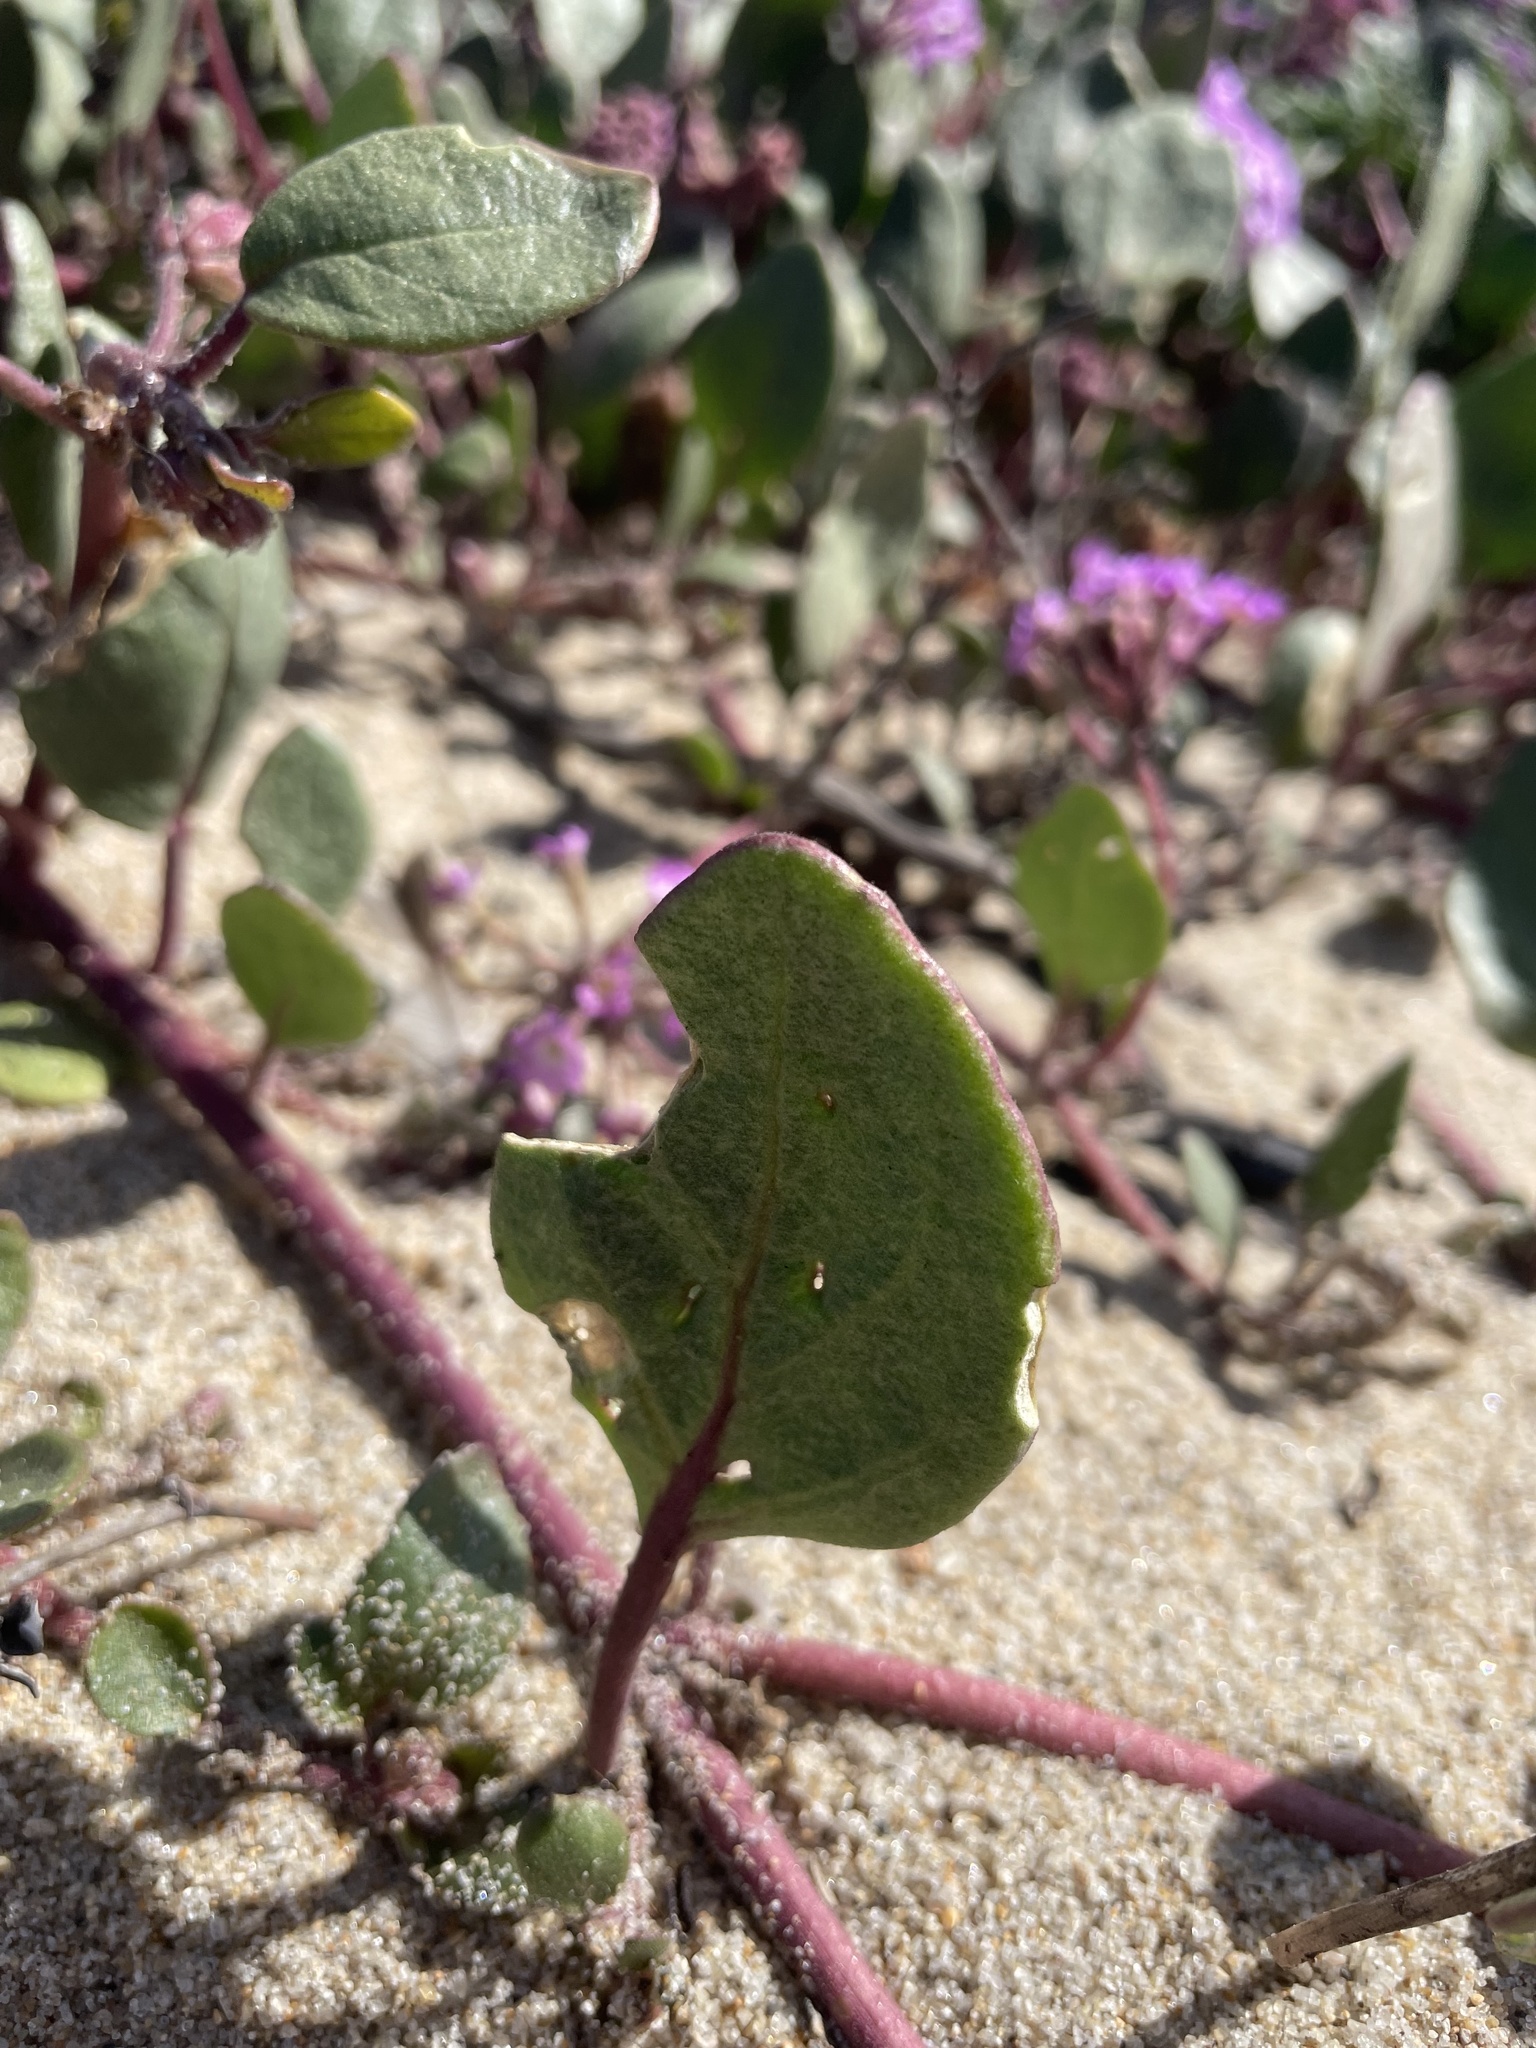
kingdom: Plantae
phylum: Tracheophyta
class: Magnoliopsida
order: Caryophyllales
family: Nyctaginaceae
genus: Abronia
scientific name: Abronia umbellata
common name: Sand-verbena
